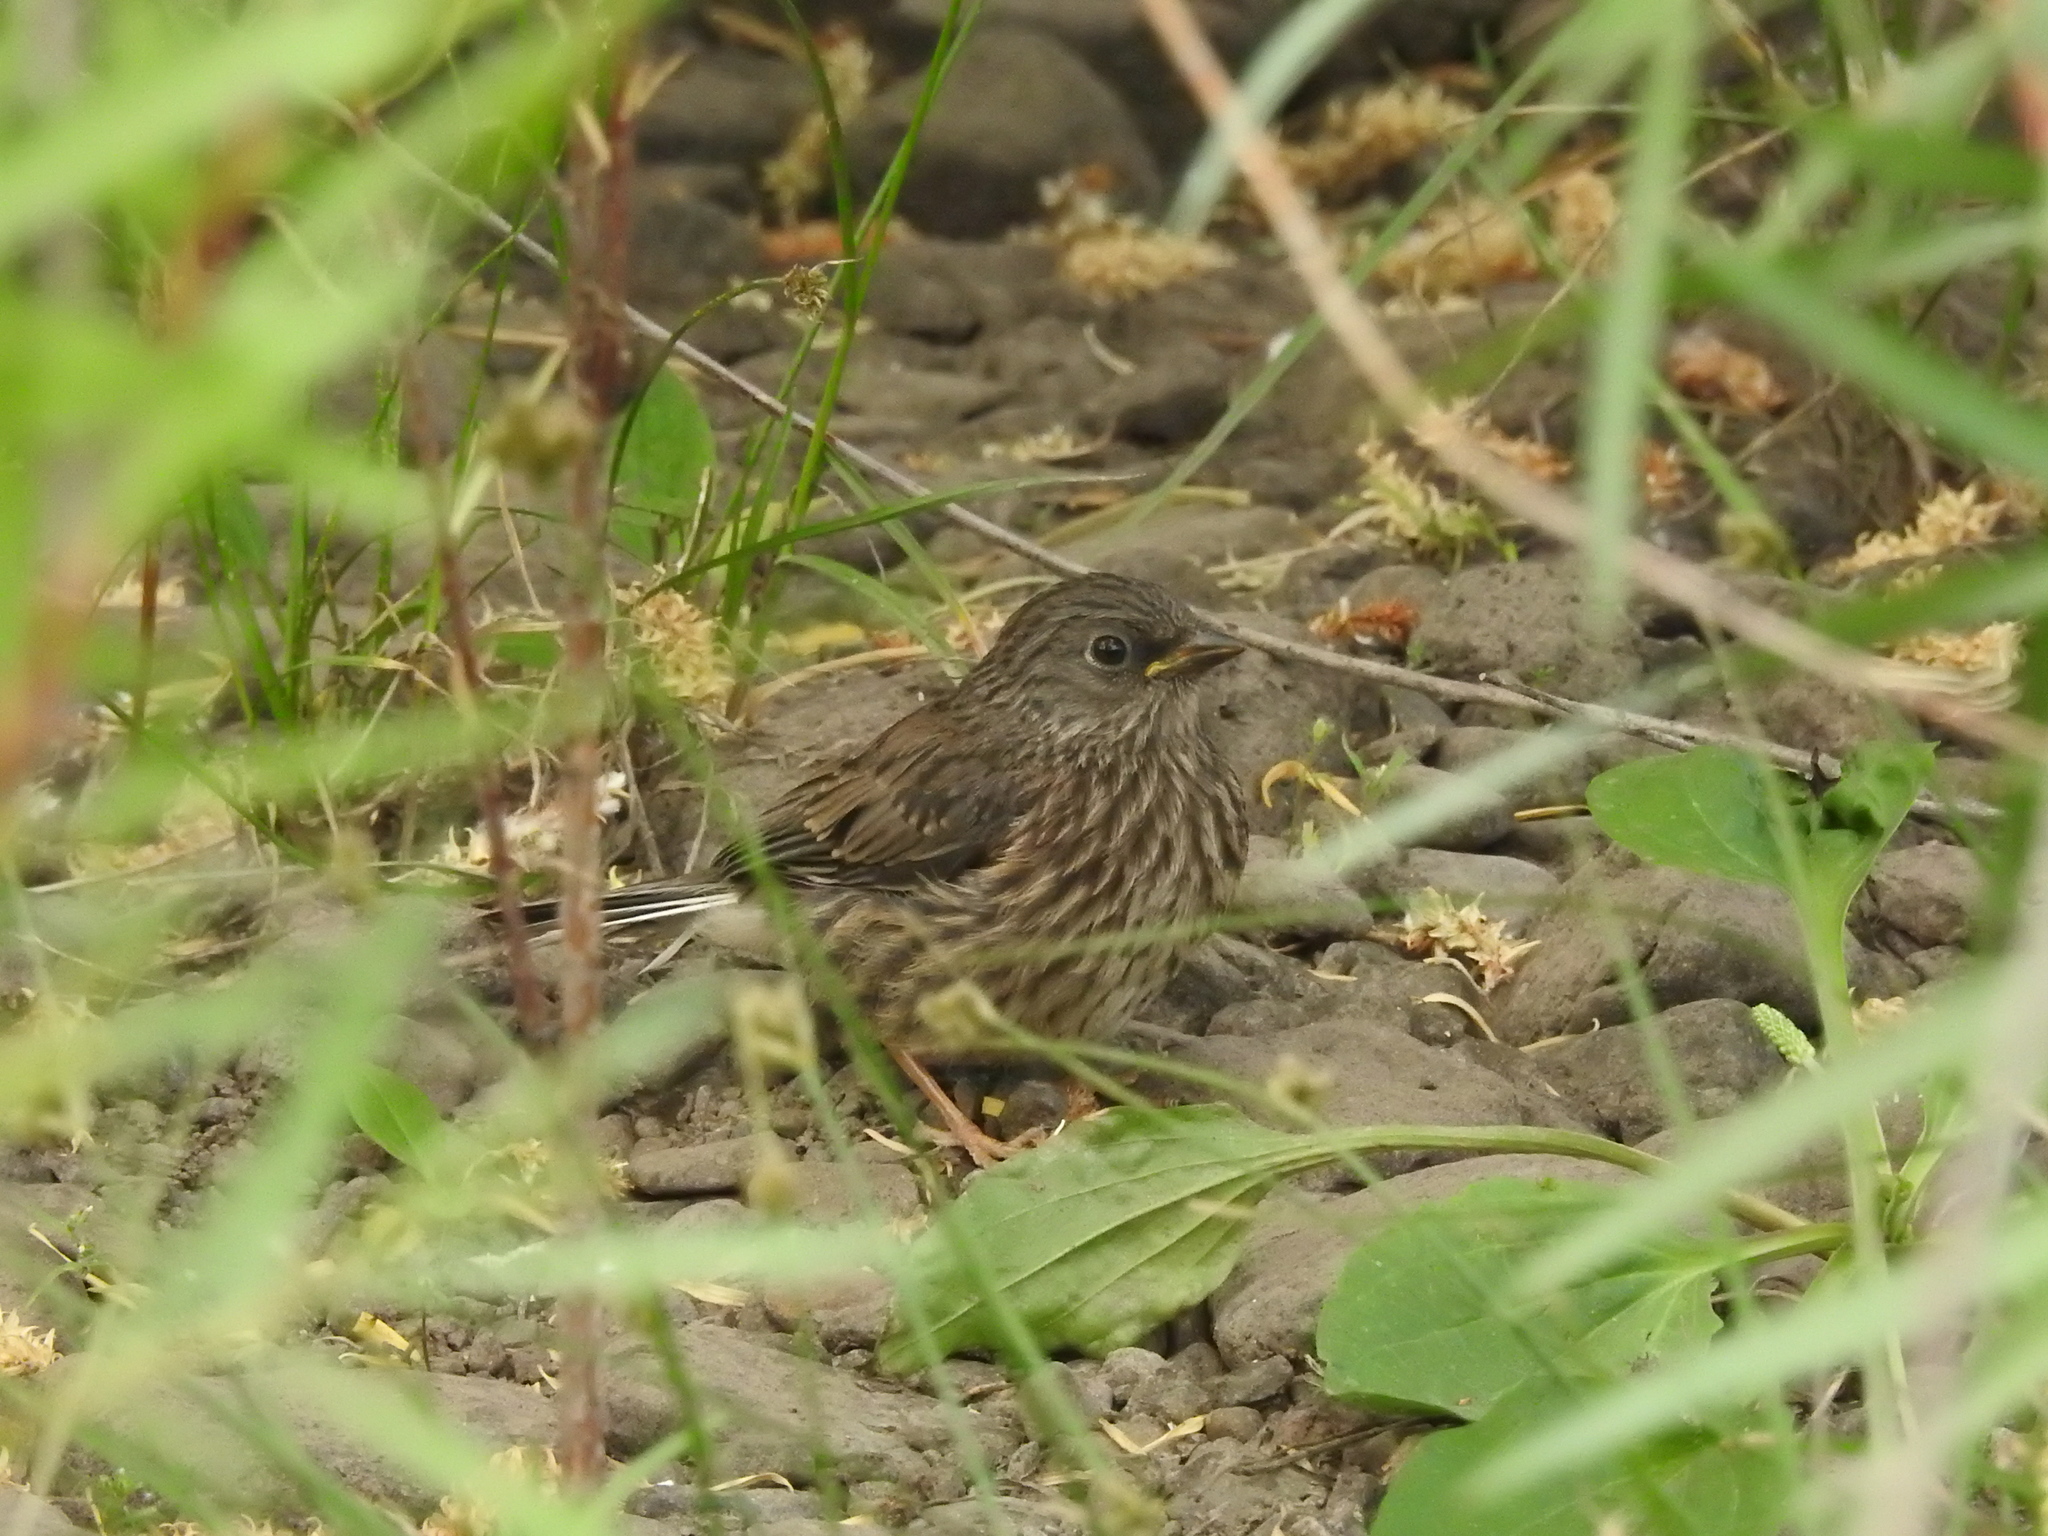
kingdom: Animalia
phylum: Chordata
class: Aves
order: Passeriformes
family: Passerellidae
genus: Junco
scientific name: Junco hyemalis
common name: Dark-eyed junco
